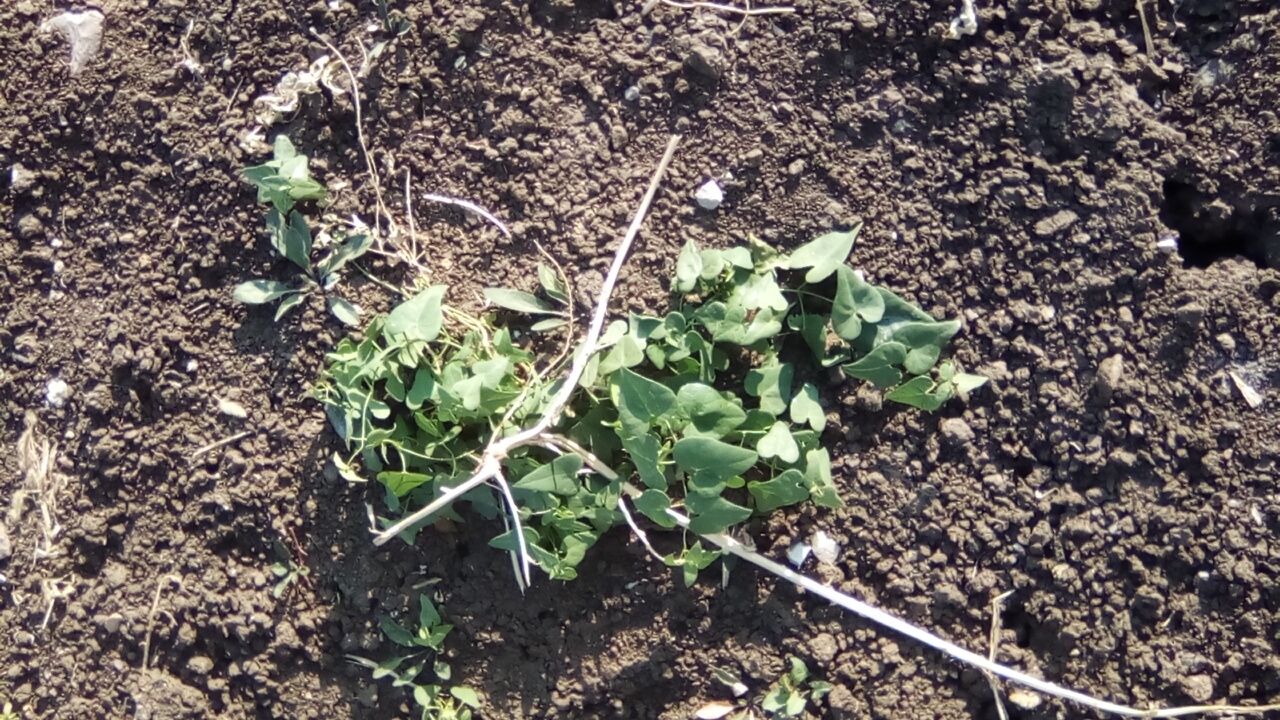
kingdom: Plantae
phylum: Tracheophyta
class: Magnoliopsida
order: Gentianales
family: Apocynaceae
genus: Cynanchum
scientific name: Cynanchum acutum
